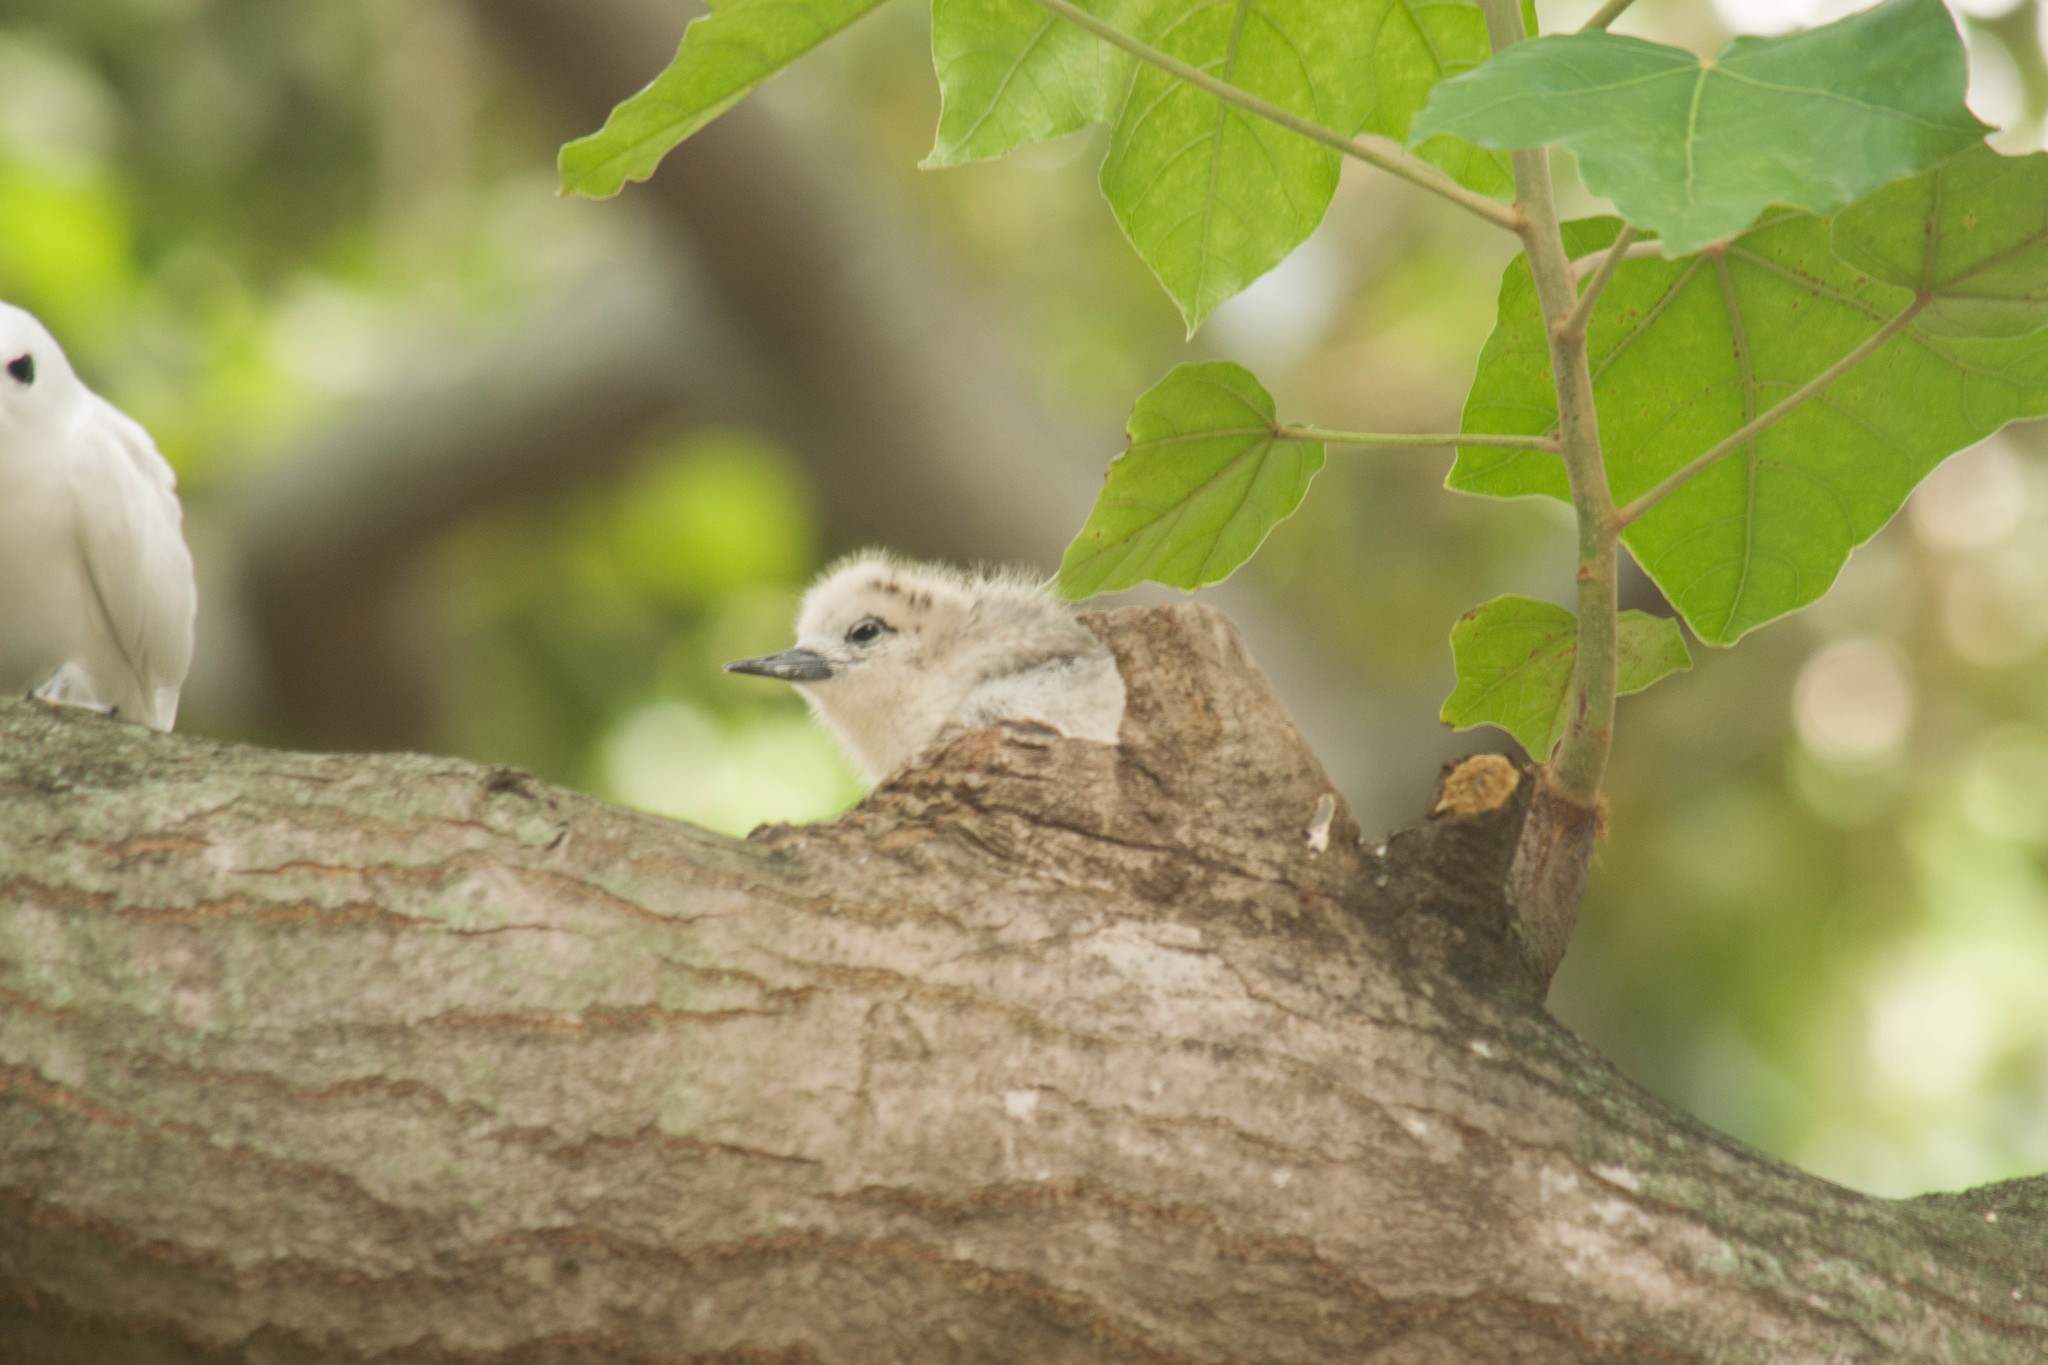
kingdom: Animalia
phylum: Chordata
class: Aves
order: Charadriiformes
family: Laridae
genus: Gygis
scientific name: Gygis alba
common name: White tern
